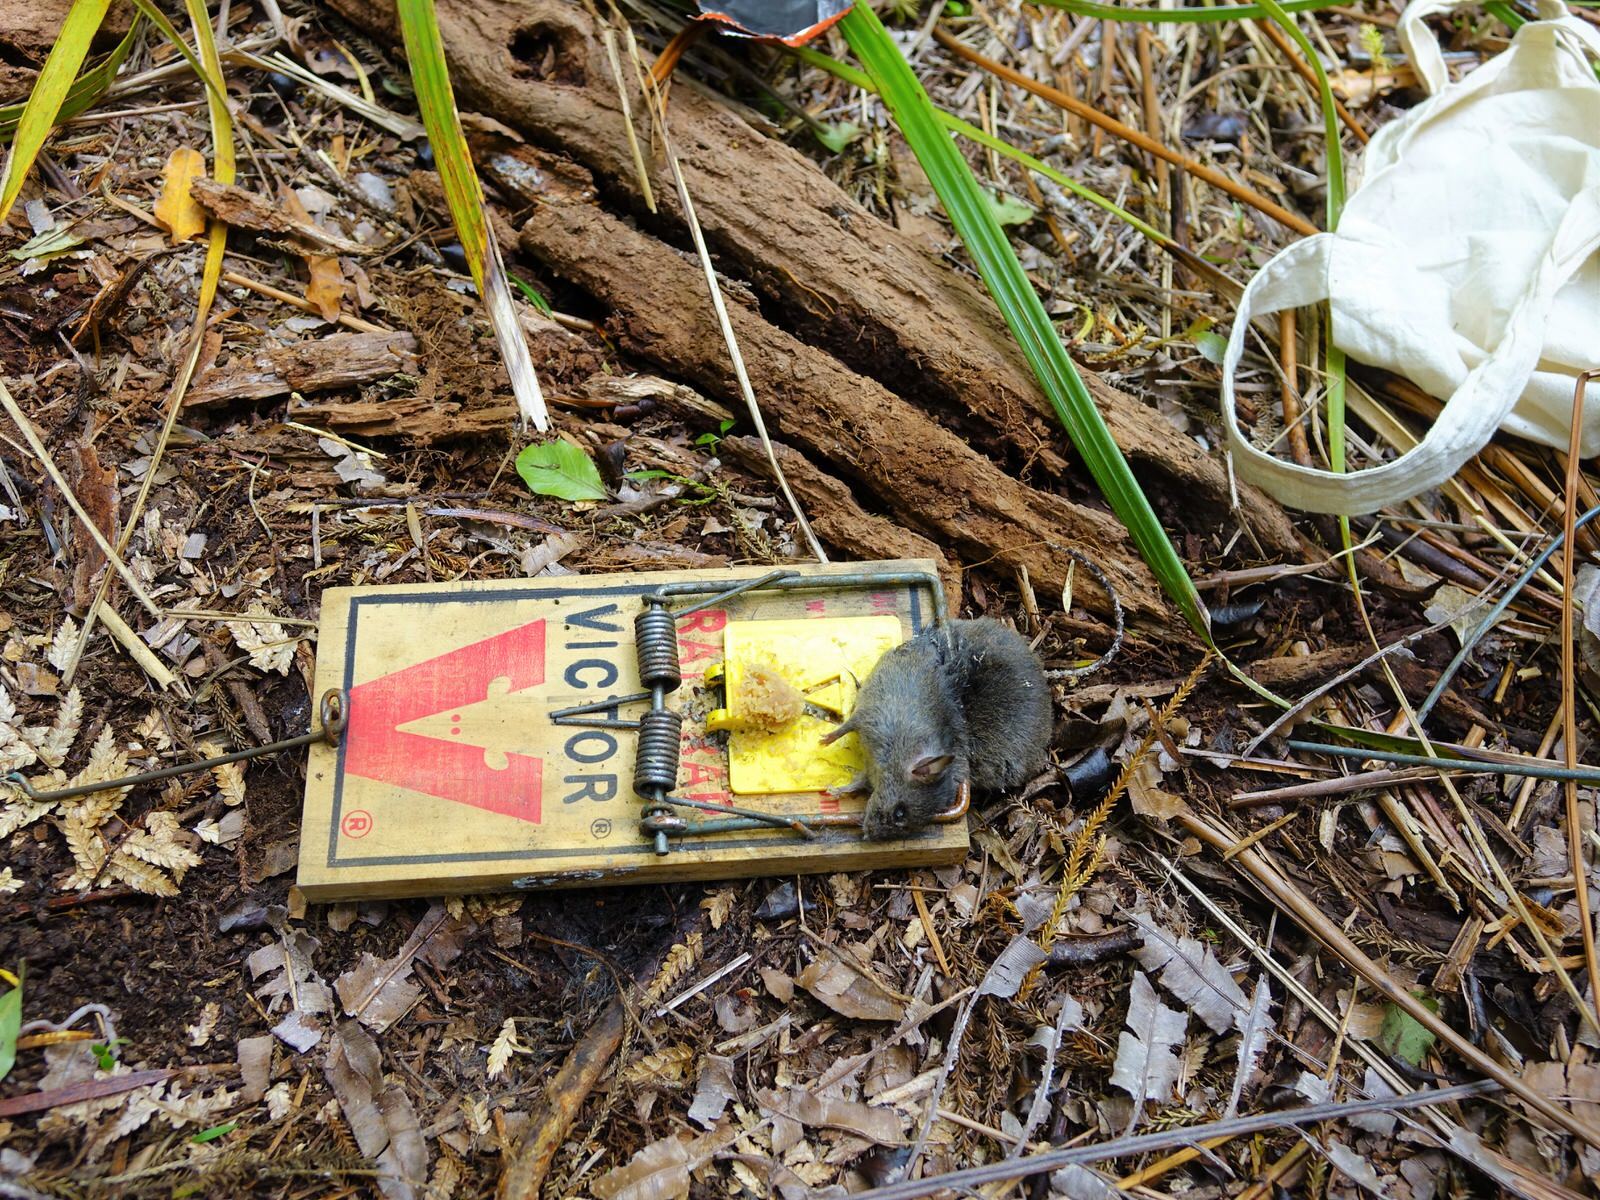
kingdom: Animalia
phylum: Chordata
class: Mammalia
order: Rodentia
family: Muridae
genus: Rattus
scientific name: Rattus rattus
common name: Black rat
